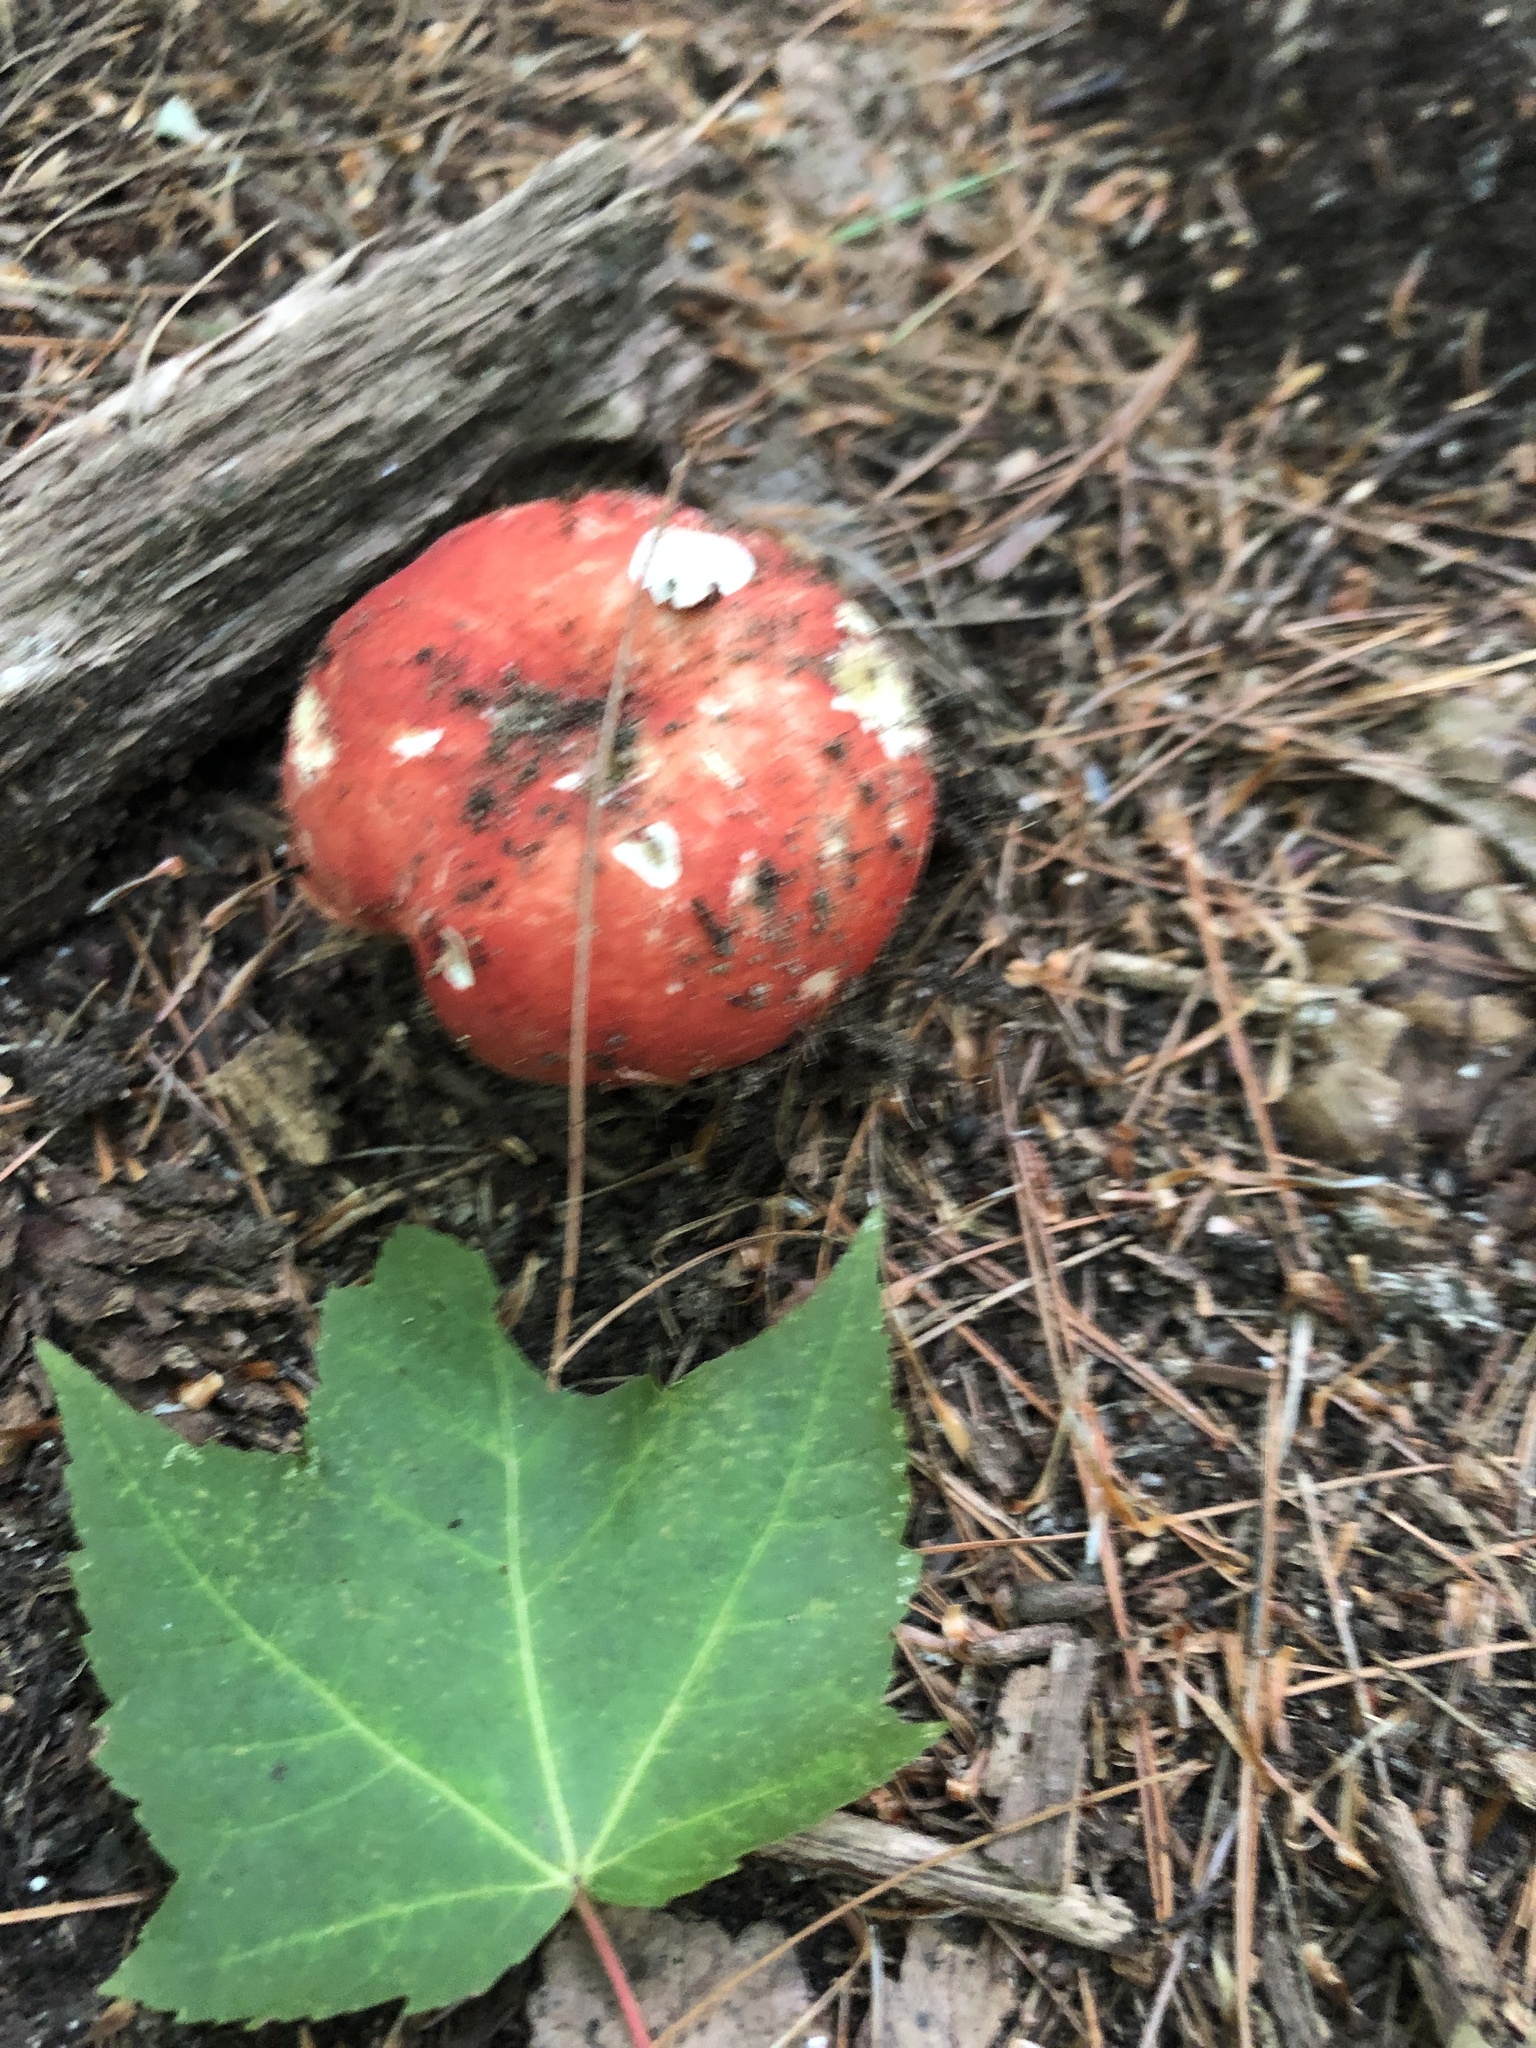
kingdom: Fungi
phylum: Basidiomycota
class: Agaricomycetes
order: Russulales
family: Russulaceae
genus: Russula
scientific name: Russula
